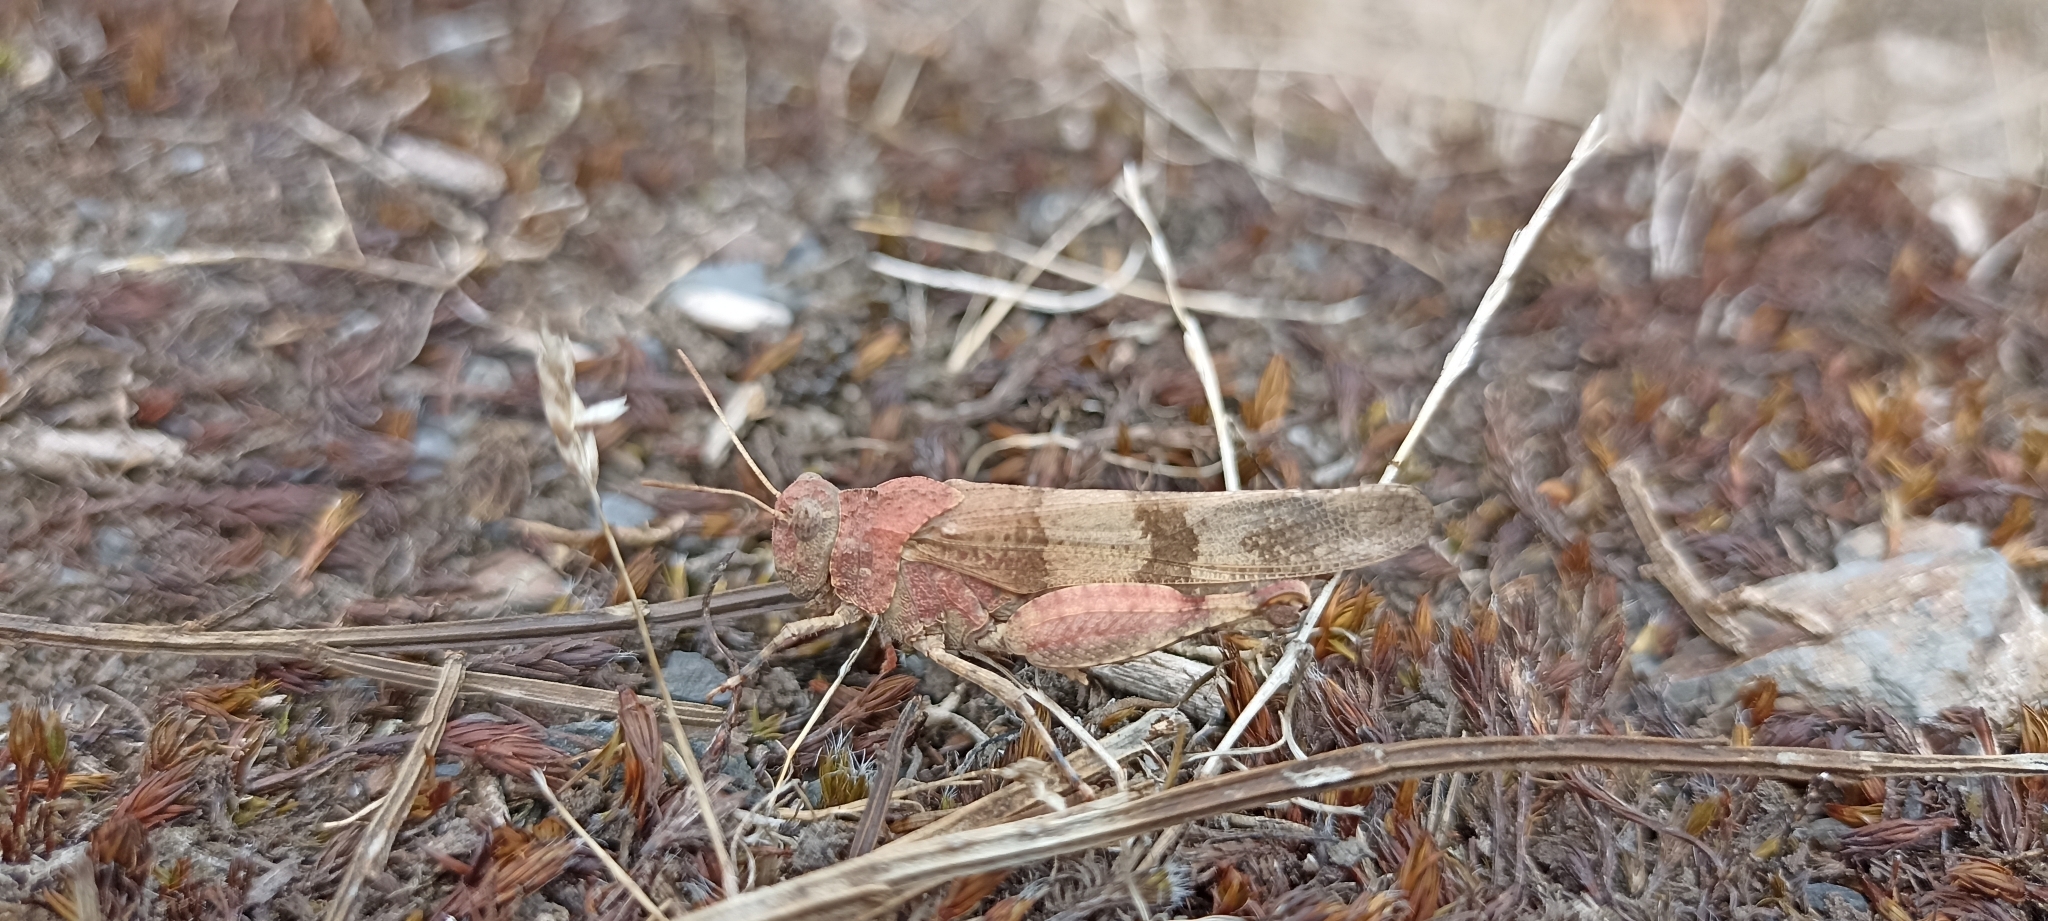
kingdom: Animalia
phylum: Arthropoda
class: Insecta
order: Orthoptera
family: Acrididae
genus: Oedipoda
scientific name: Oedipoda caerulescens
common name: Blue-winged grasshopper
